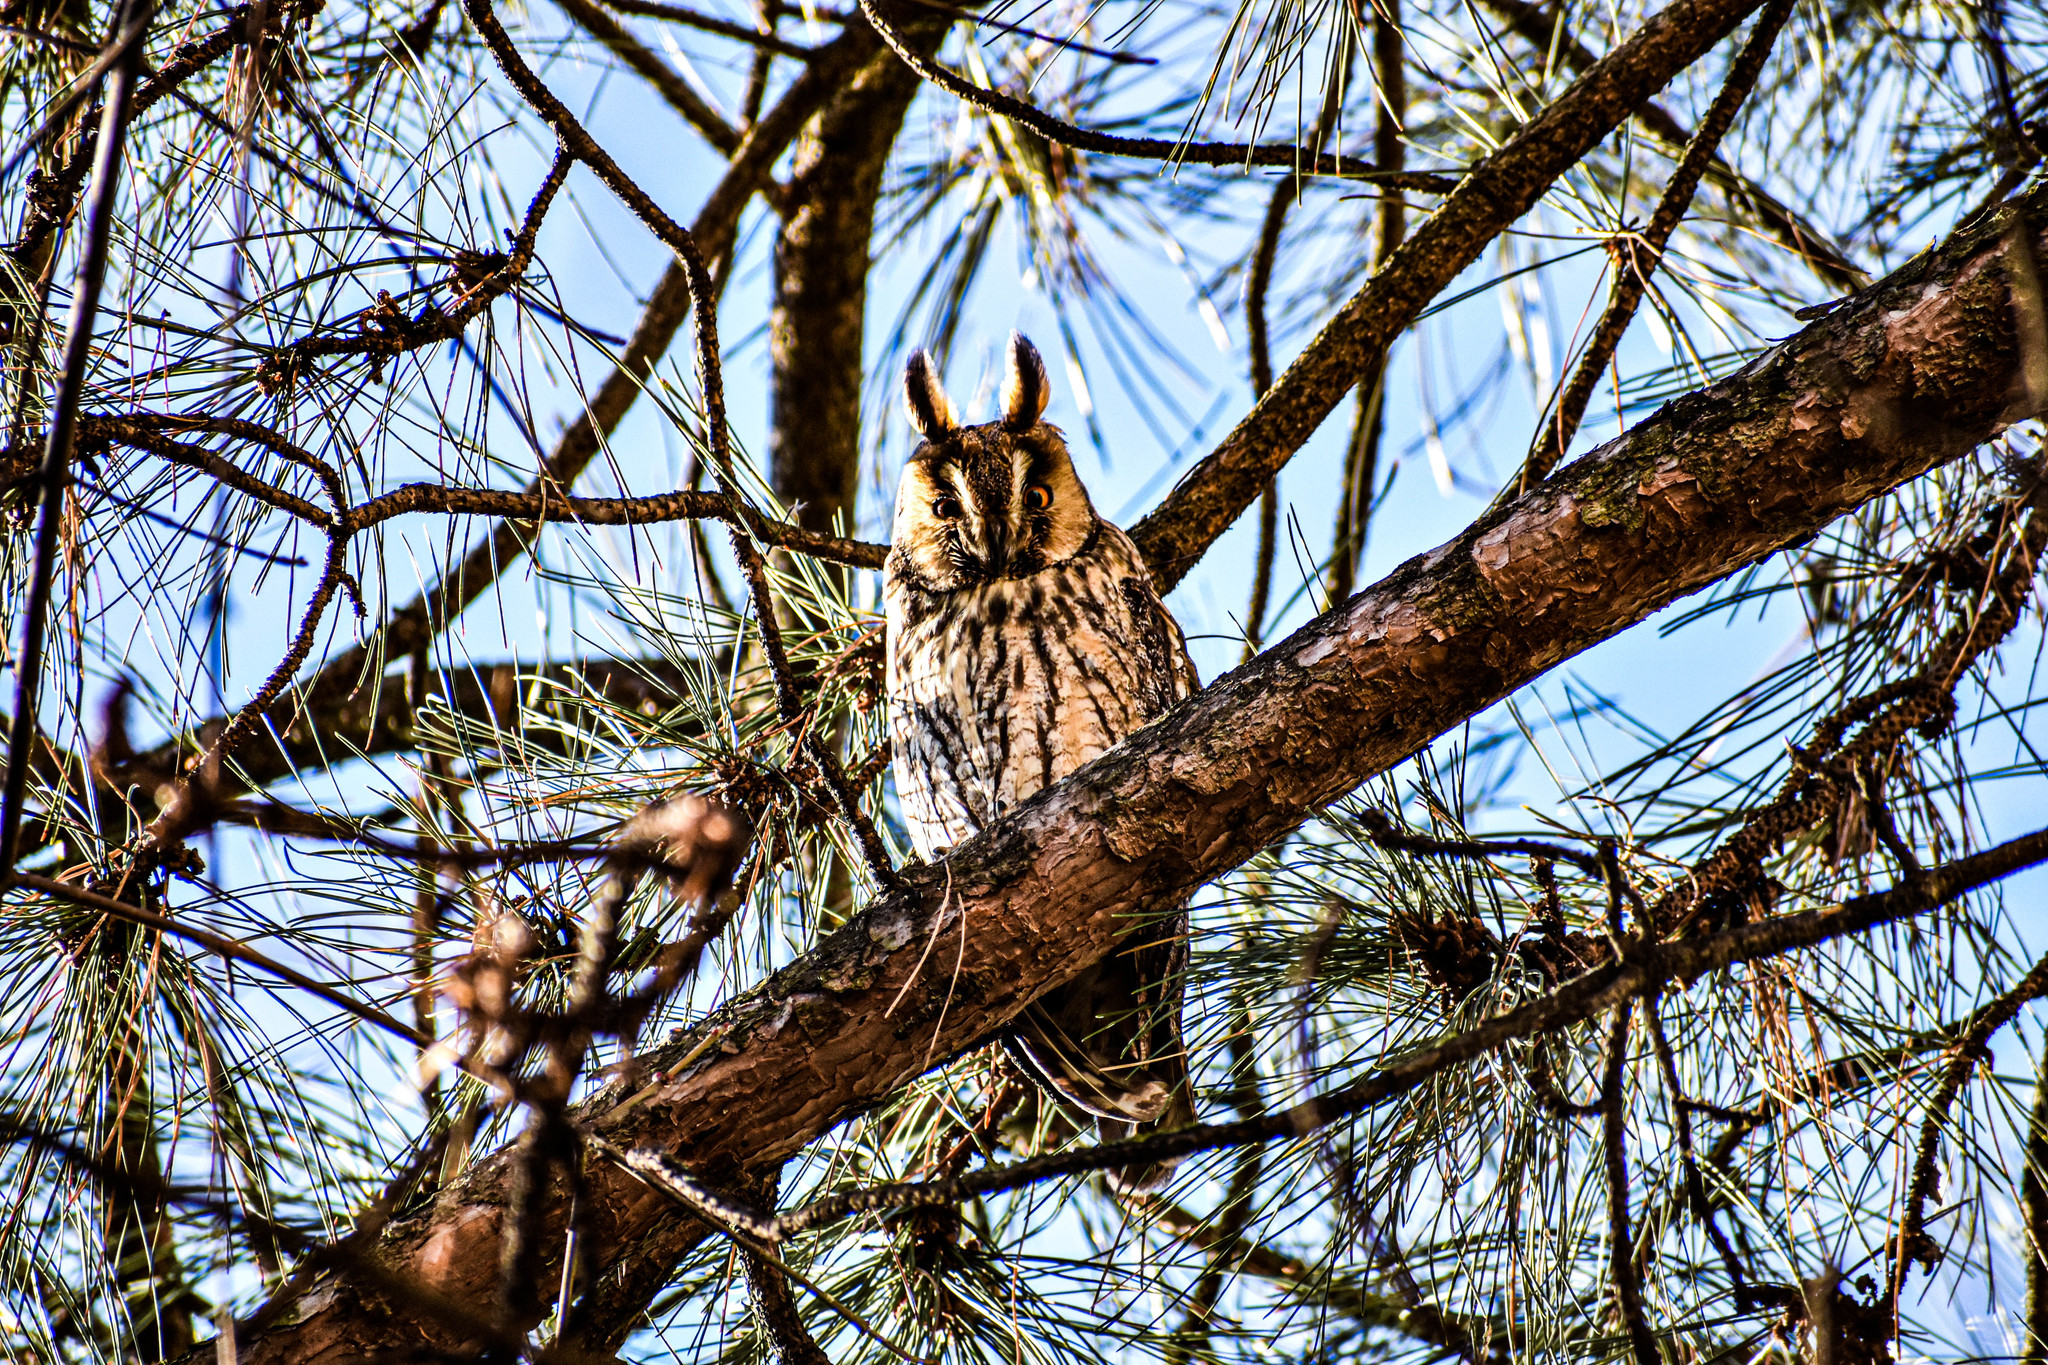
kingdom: Animalia
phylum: Chordata
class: Aves
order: Strigiformes
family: Strigidae
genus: Asio
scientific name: Asio otus
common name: Long-eared owl
